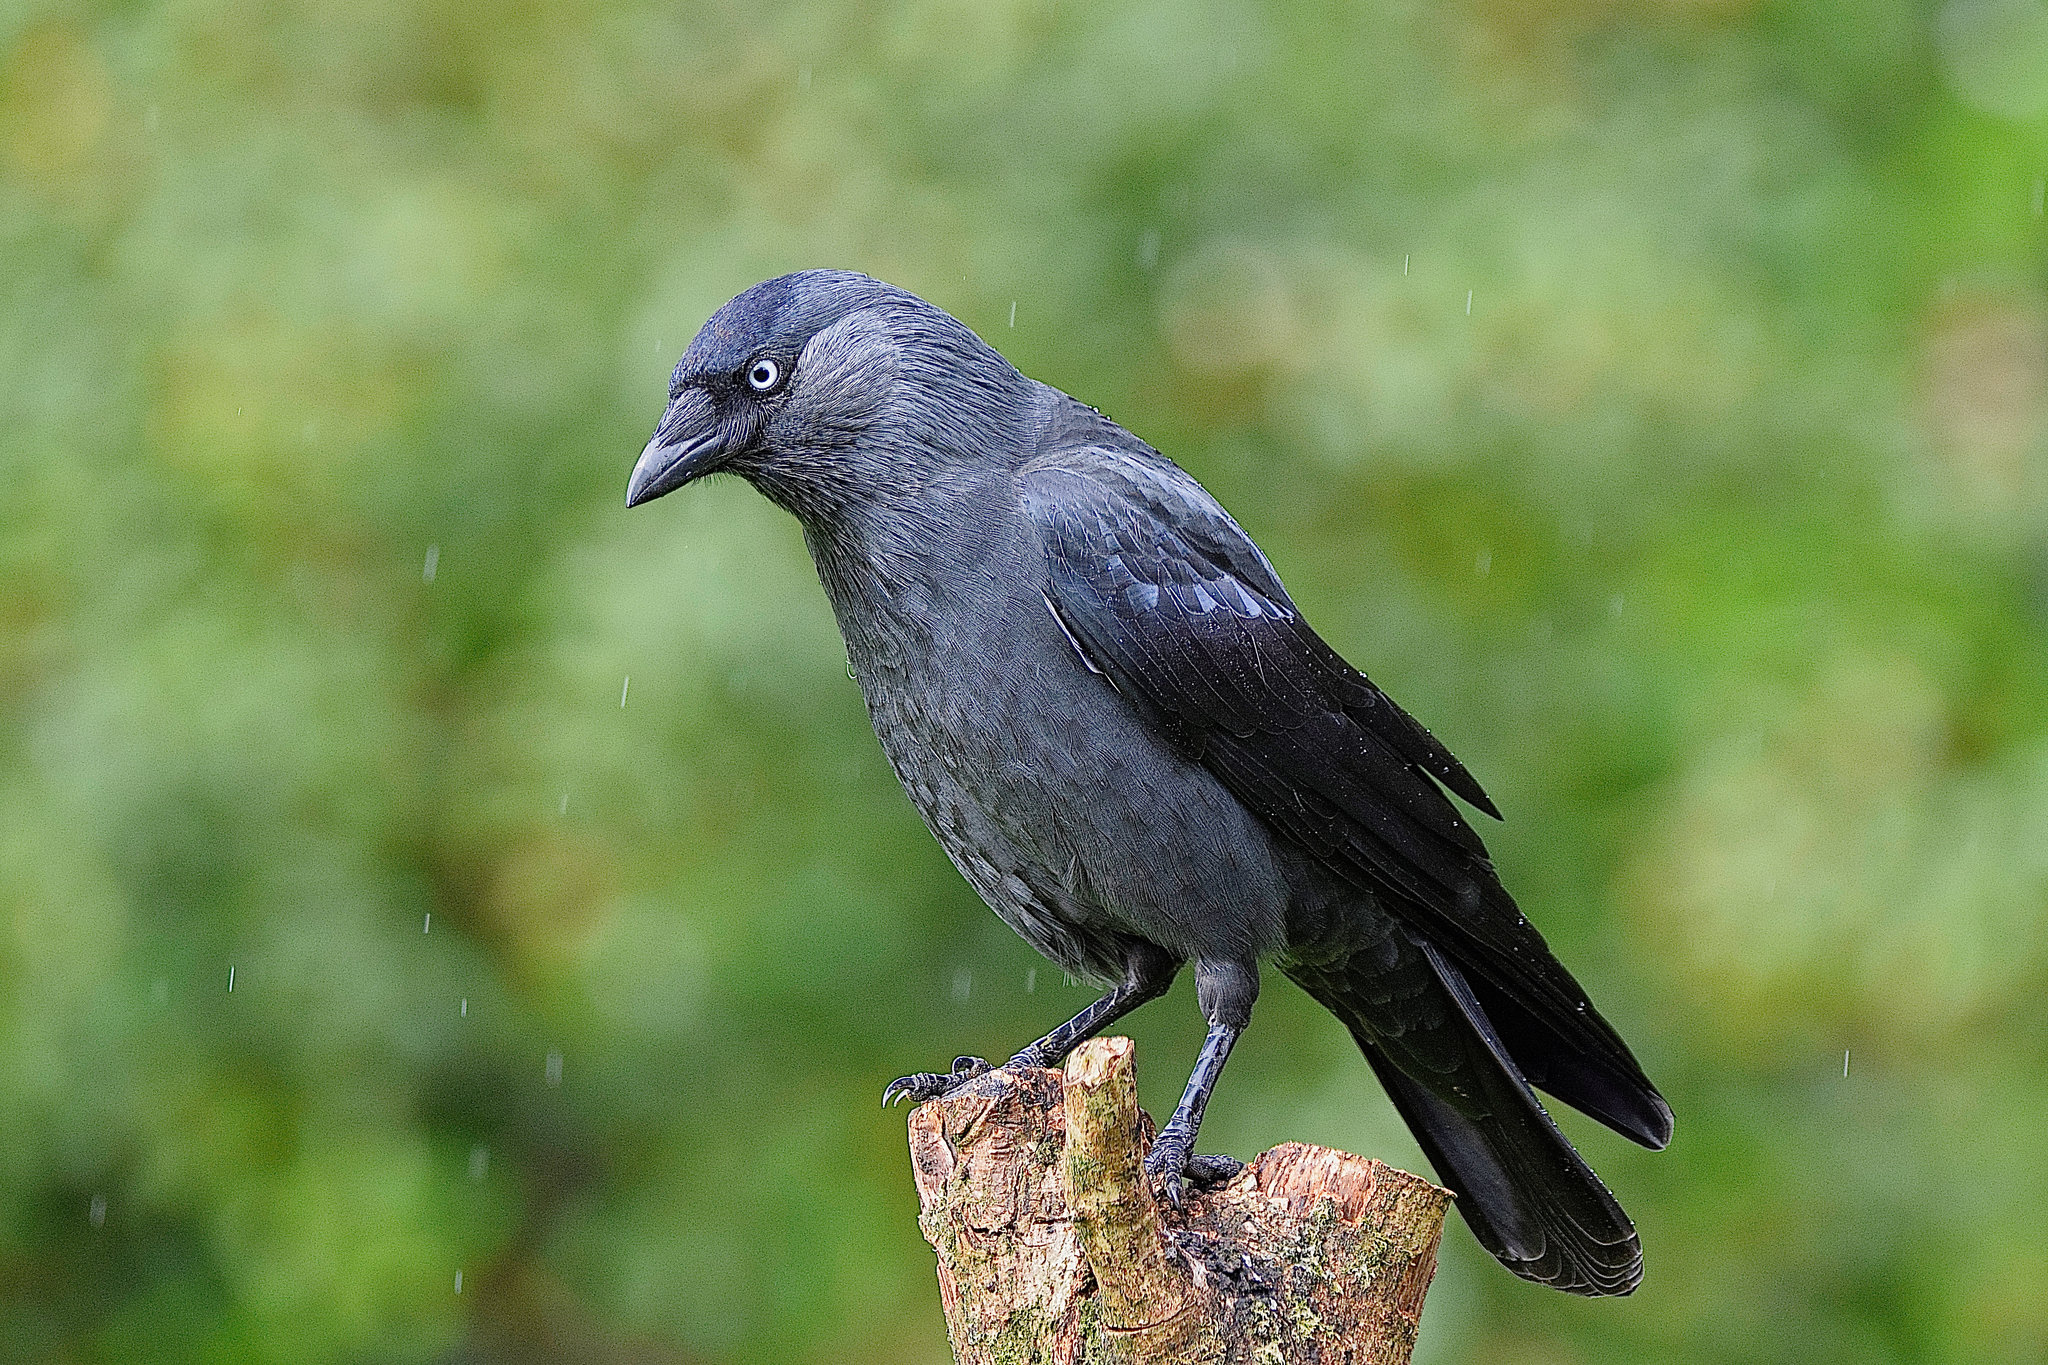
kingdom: Animalia
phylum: Chordata
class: Aves
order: Passeriformes
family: Corvidae
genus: Coloeus
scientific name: Coloeus monedula
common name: Western jackdaw
